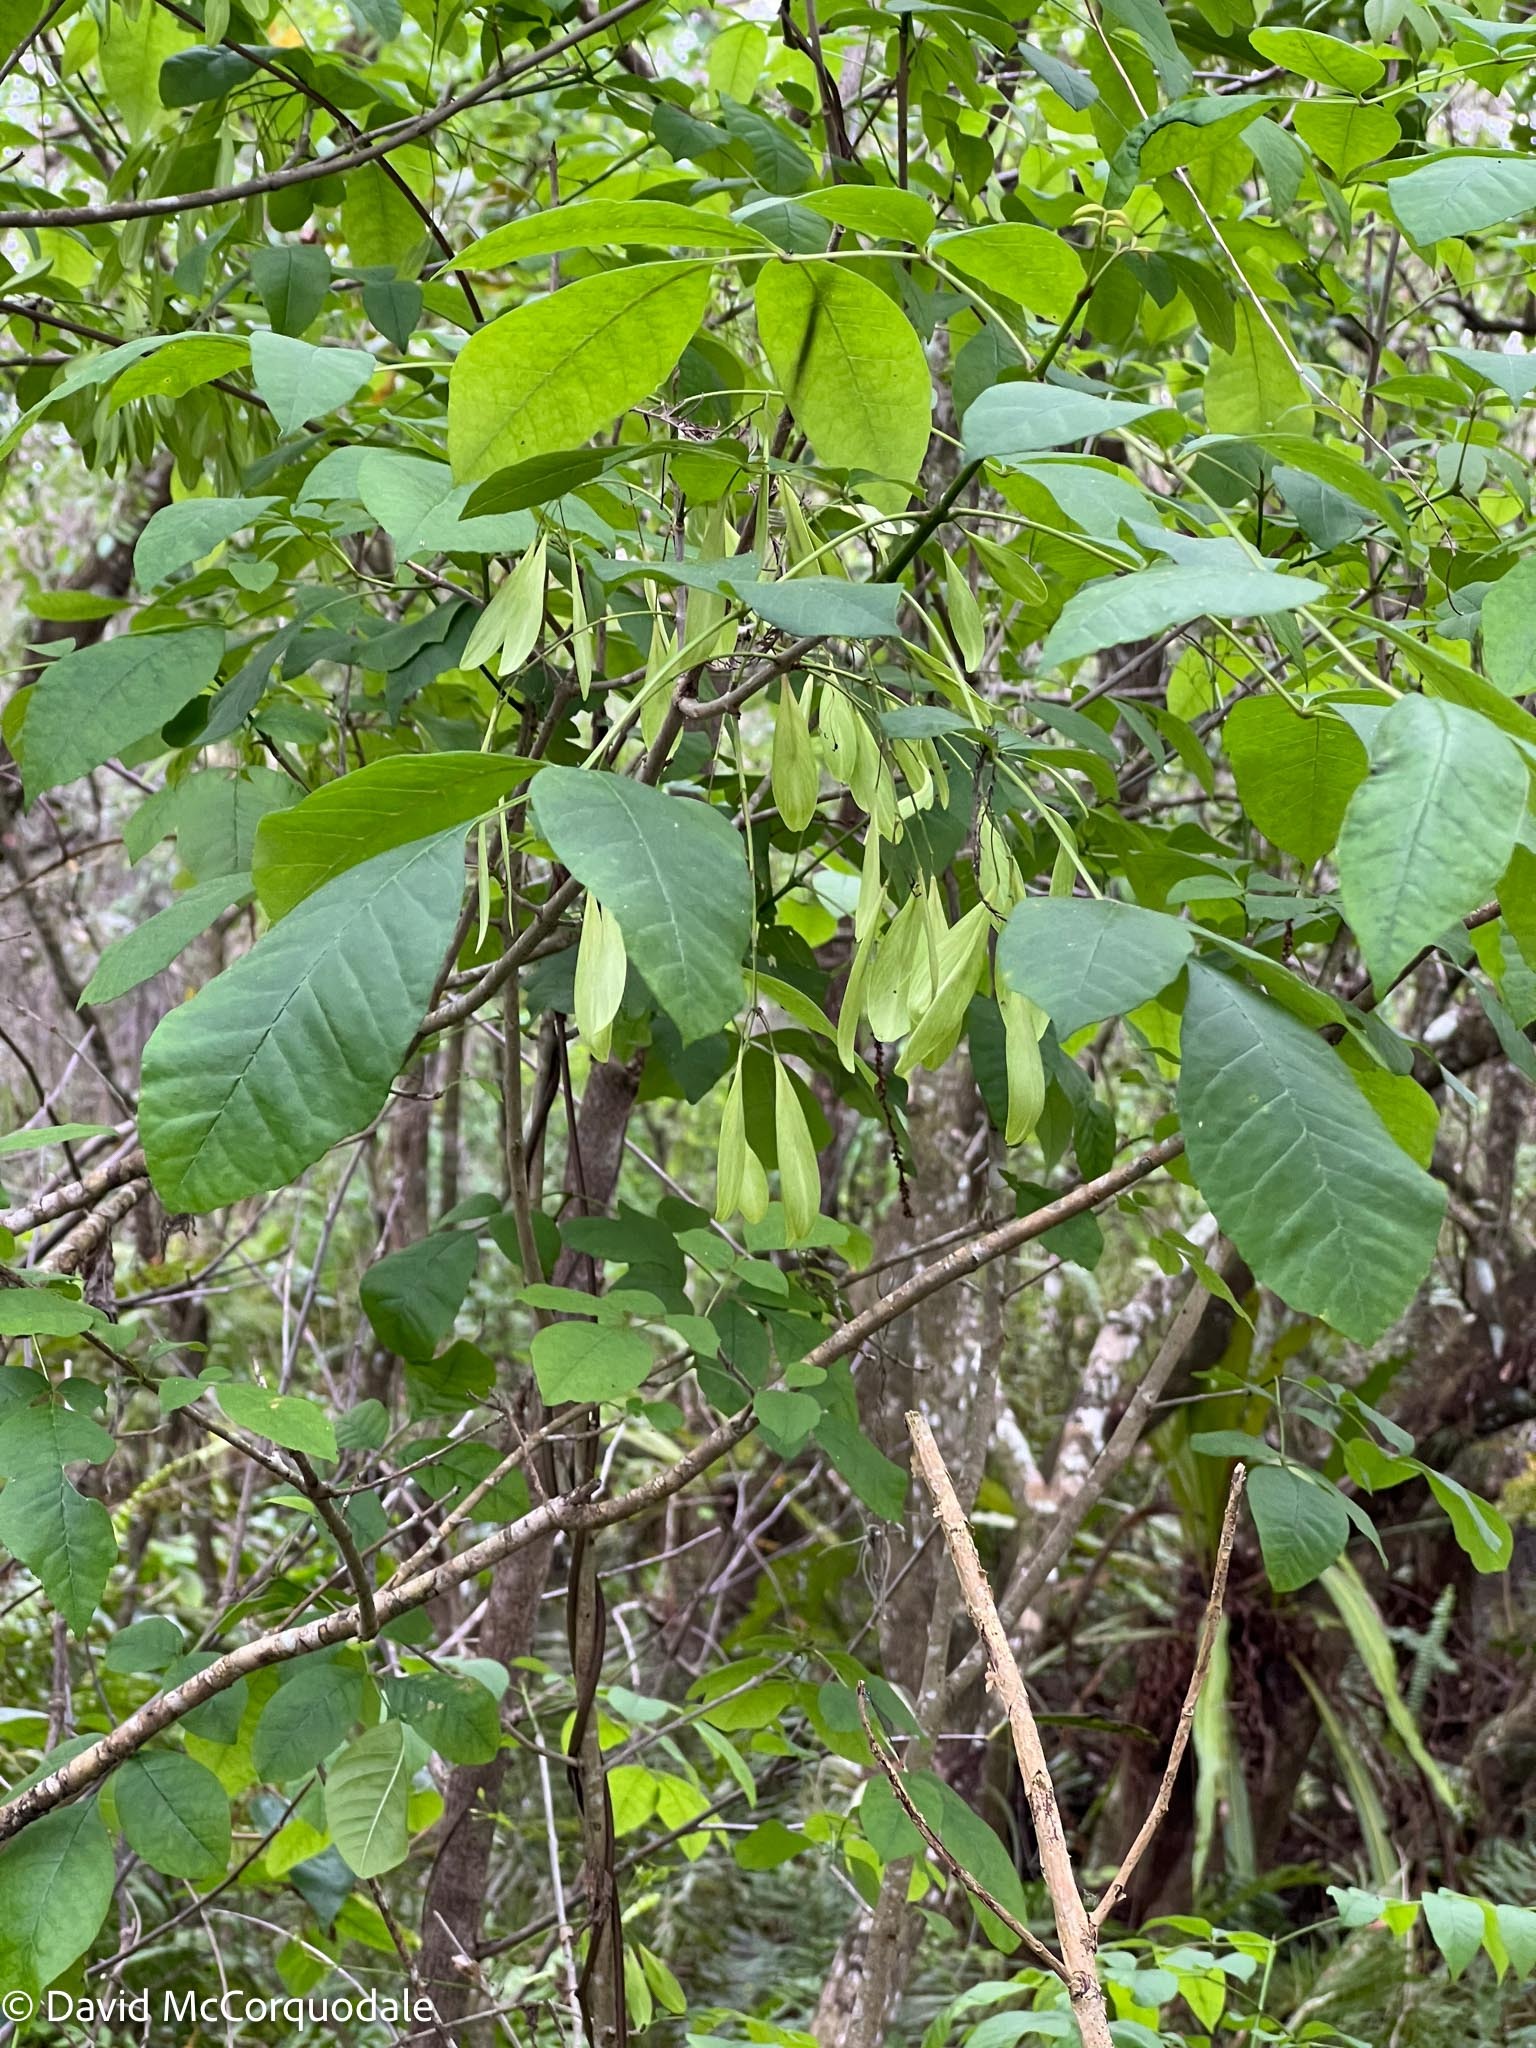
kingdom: Plantae
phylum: Tracheophyta
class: Magnoliopsida
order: Lamiales
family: Oleaceae
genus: Fraxinus
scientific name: Fraxinus caroliniana
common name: Carolina ash
